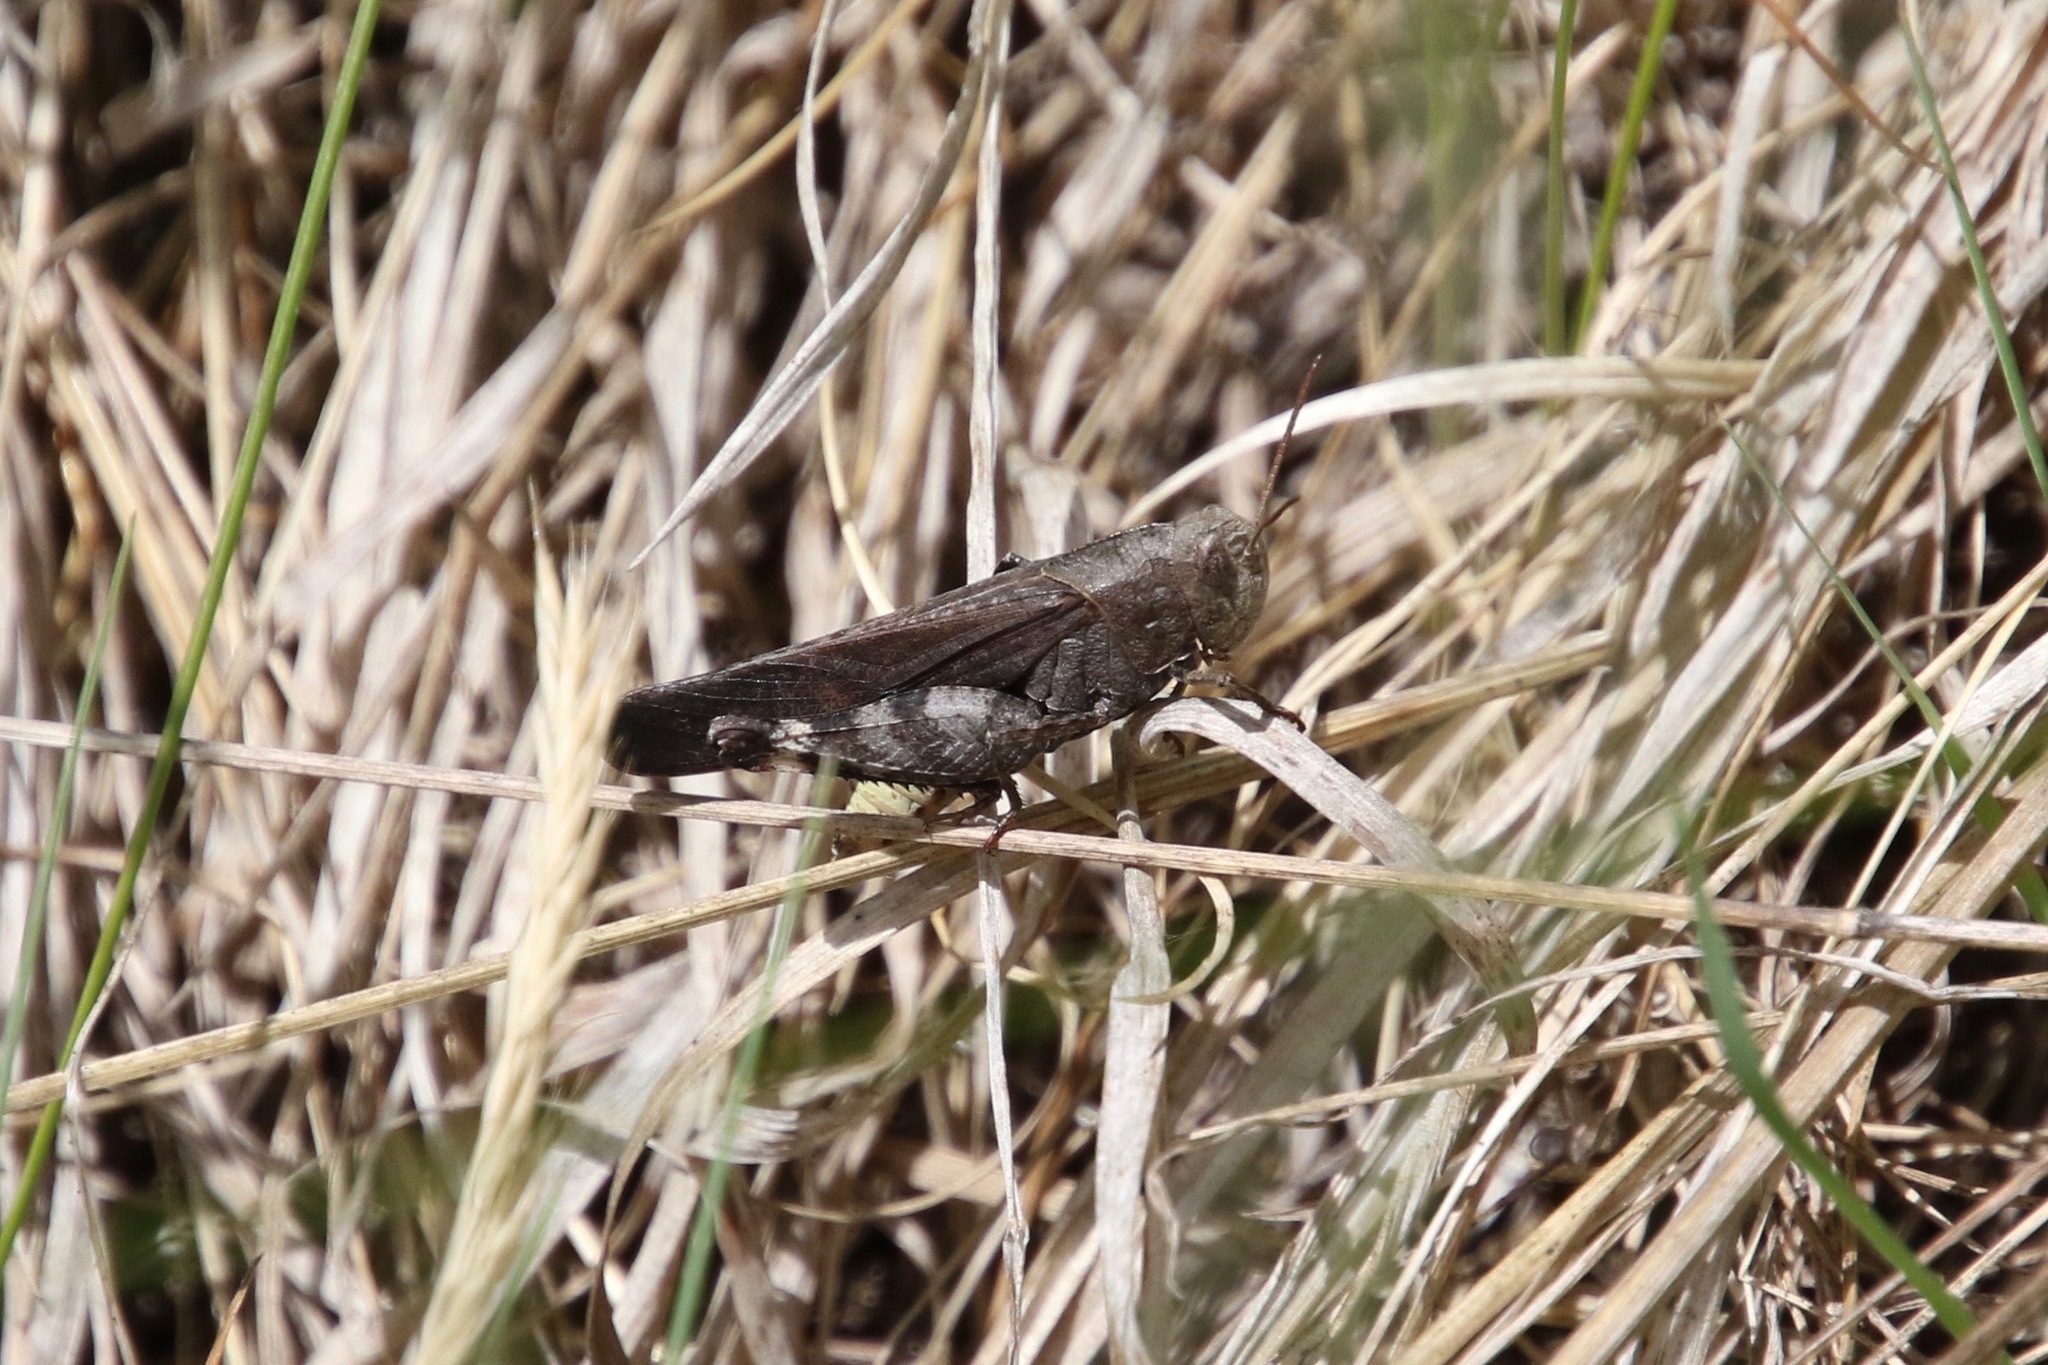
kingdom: Animalia
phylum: Arthropoda
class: Insecta
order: Orthoptera
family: Acrididae
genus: Arphia
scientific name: Arphia sulphurea
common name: Spring yellow-winged locust
